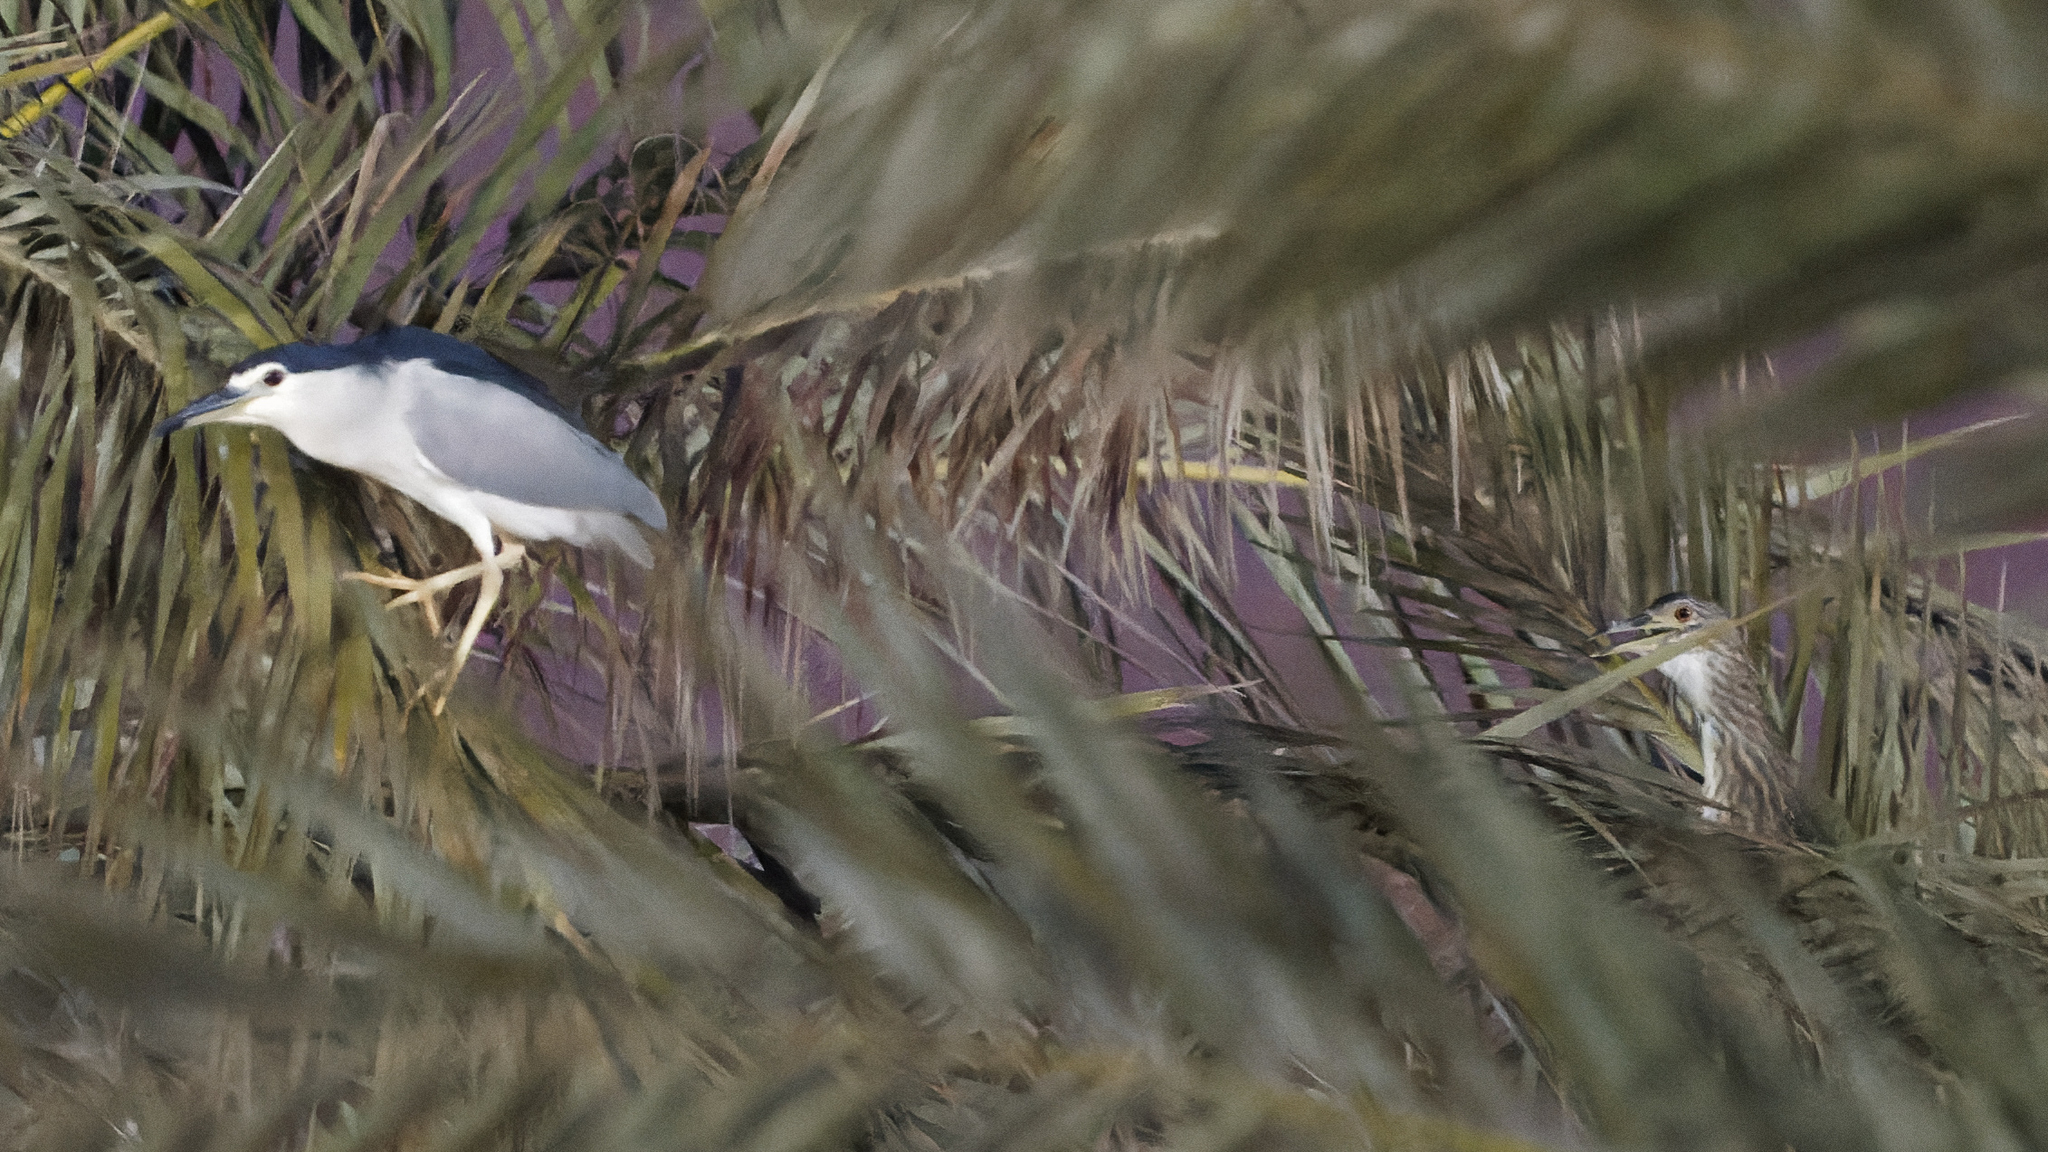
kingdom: Animalia
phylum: Chordata
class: Aves
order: Pelecaniformes
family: Ardeidae
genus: Nycticorax
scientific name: Nycticorax nycticorax
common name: Black-crowned night heron
